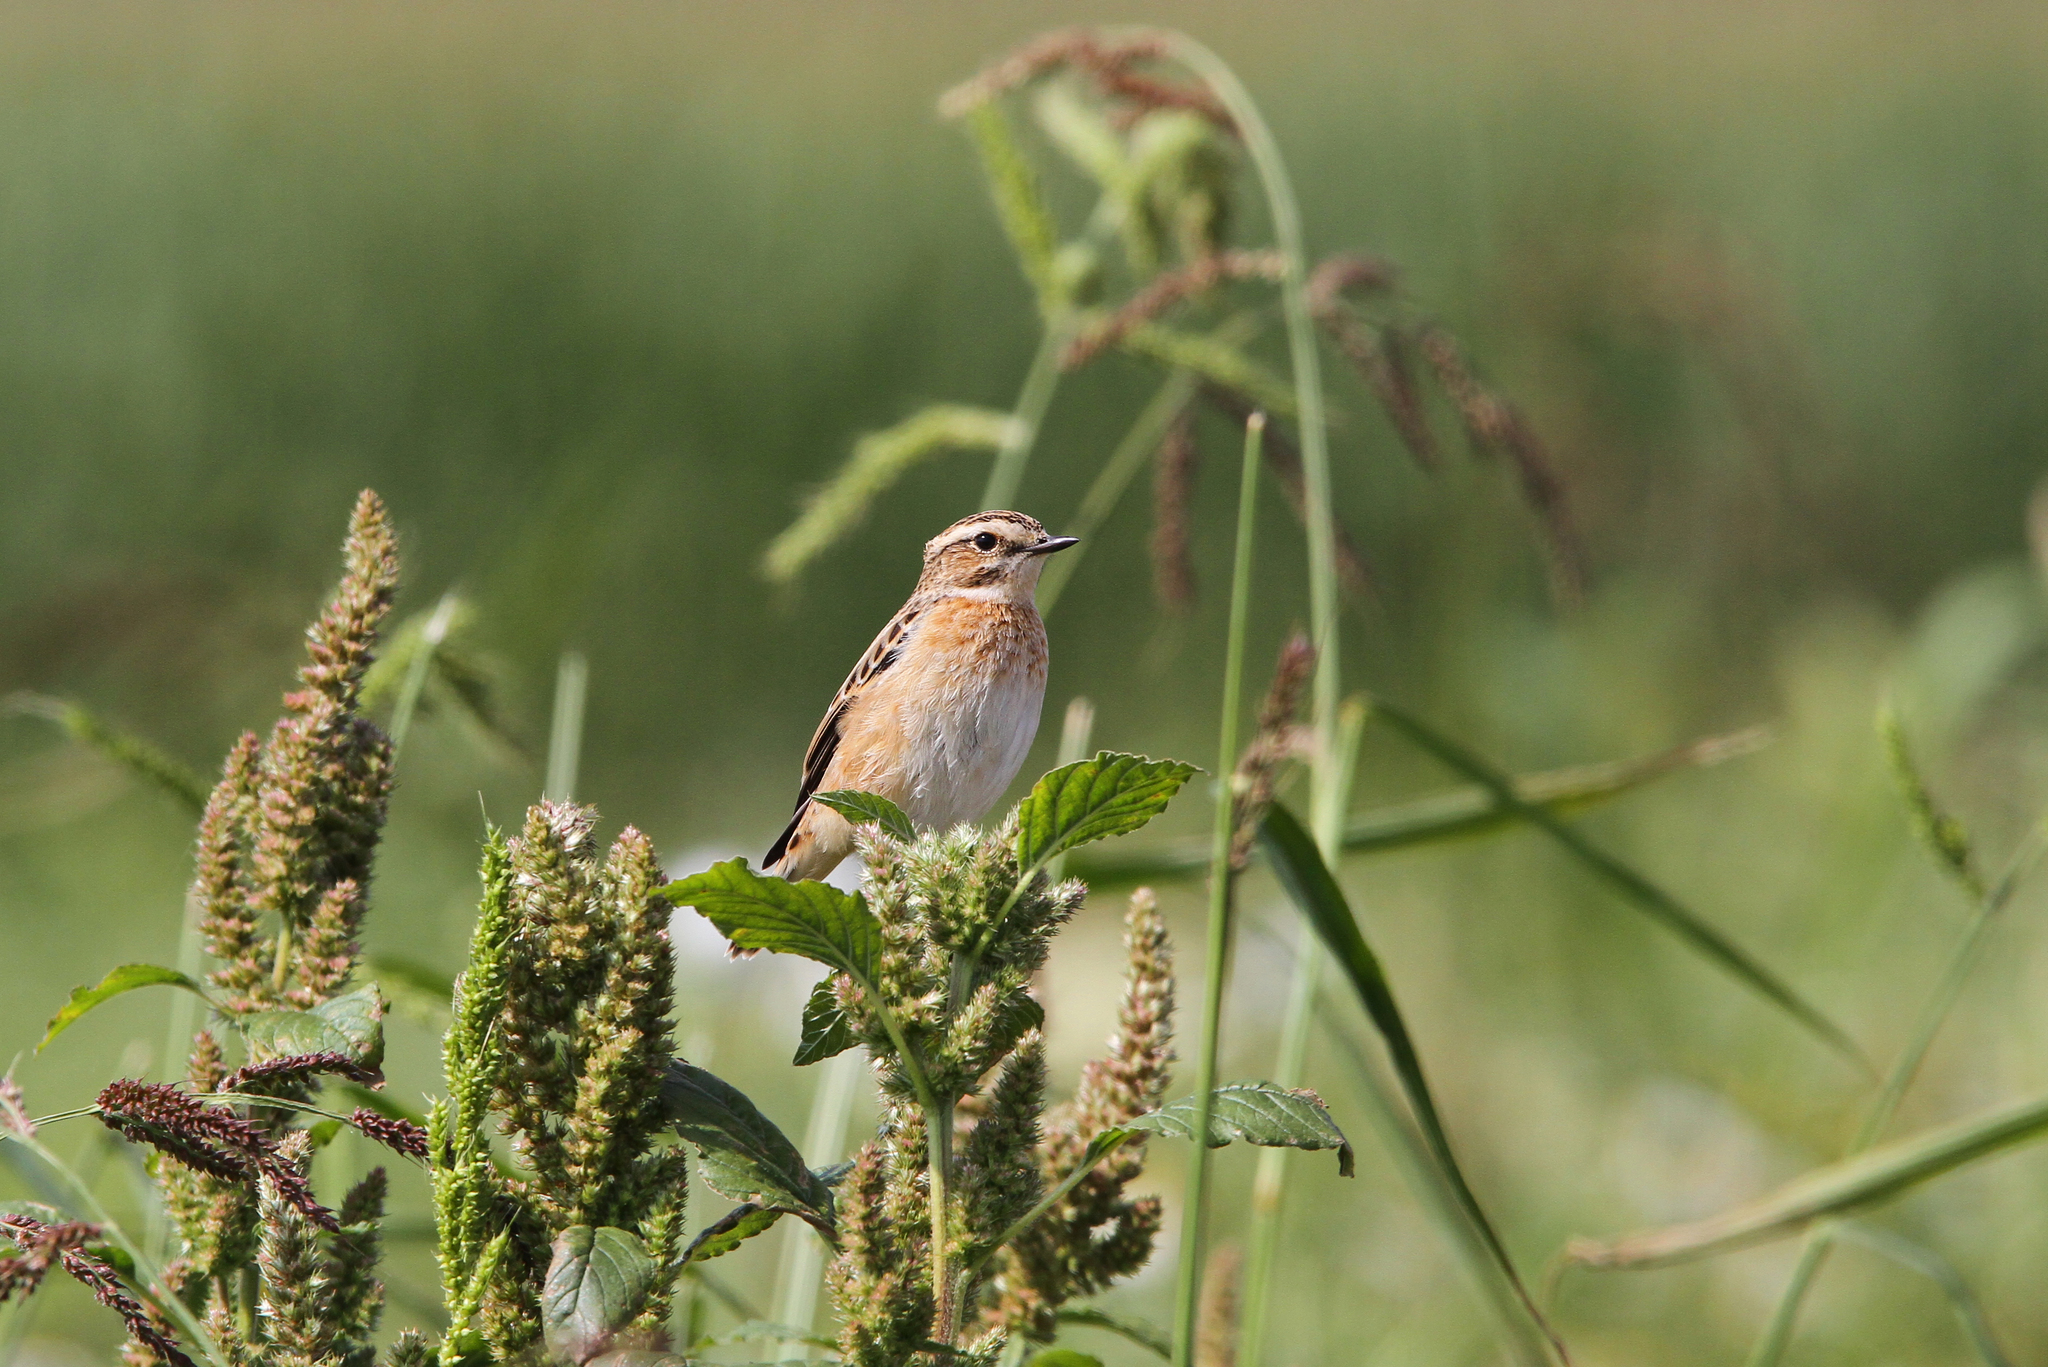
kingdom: Animalia
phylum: Chordata
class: Aves
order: Passeriformes
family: Muscicapidae
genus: Saxicola
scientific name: Saxicola rubetra
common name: Whinchat
